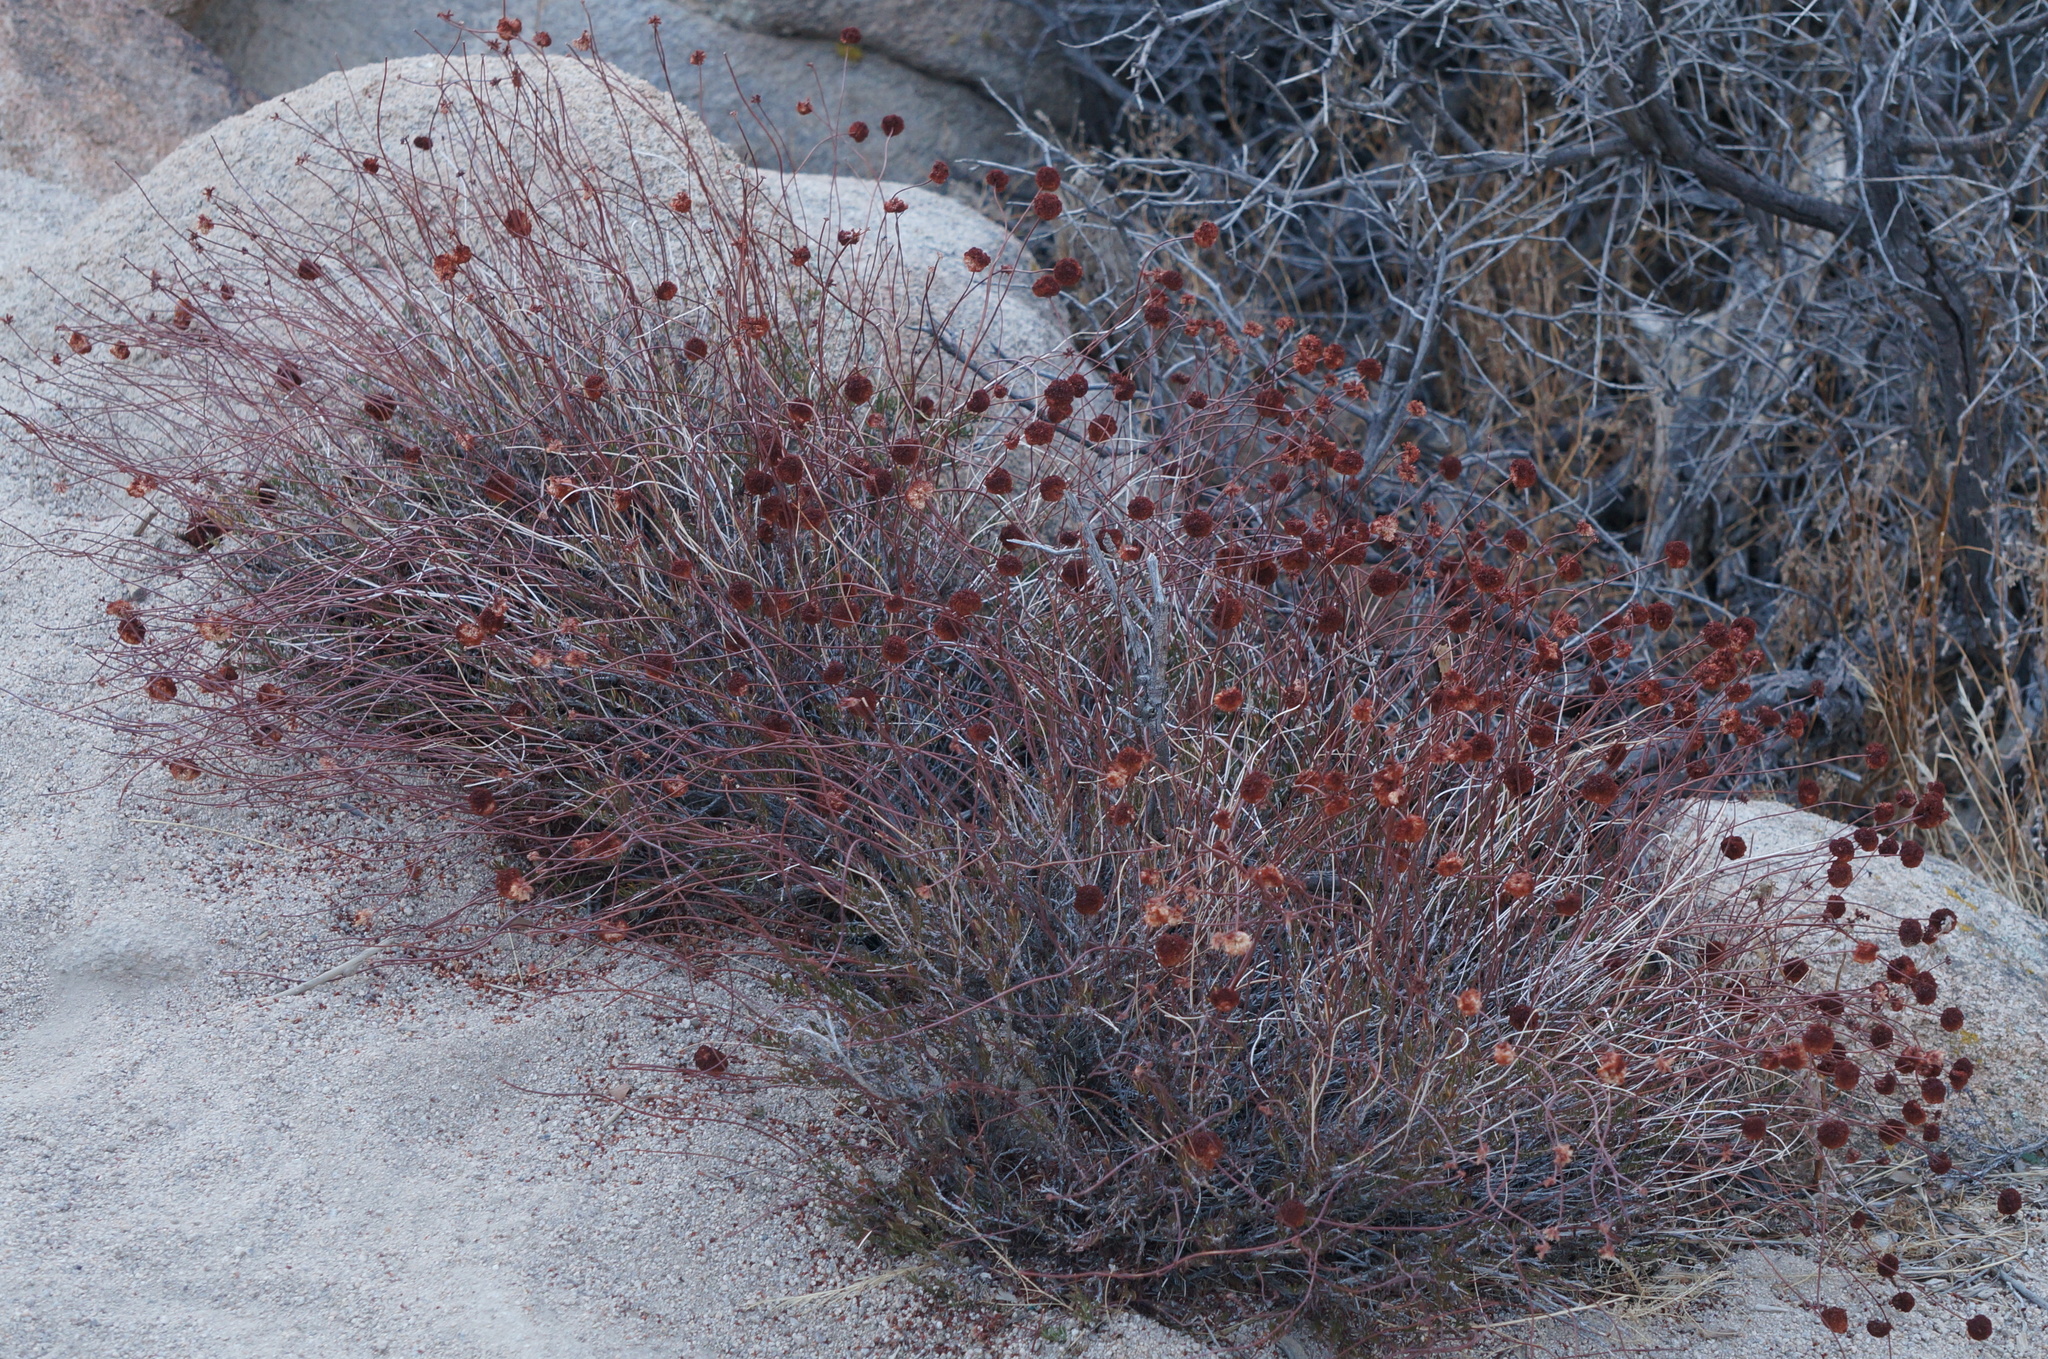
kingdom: Plantae
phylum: Tracheophyta
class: Magnoliopsida
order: Caryophyllales
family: Polygonaceae
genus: Eriogonum
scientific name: Eriogonum fasciculatum
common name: California wild buckwheat
